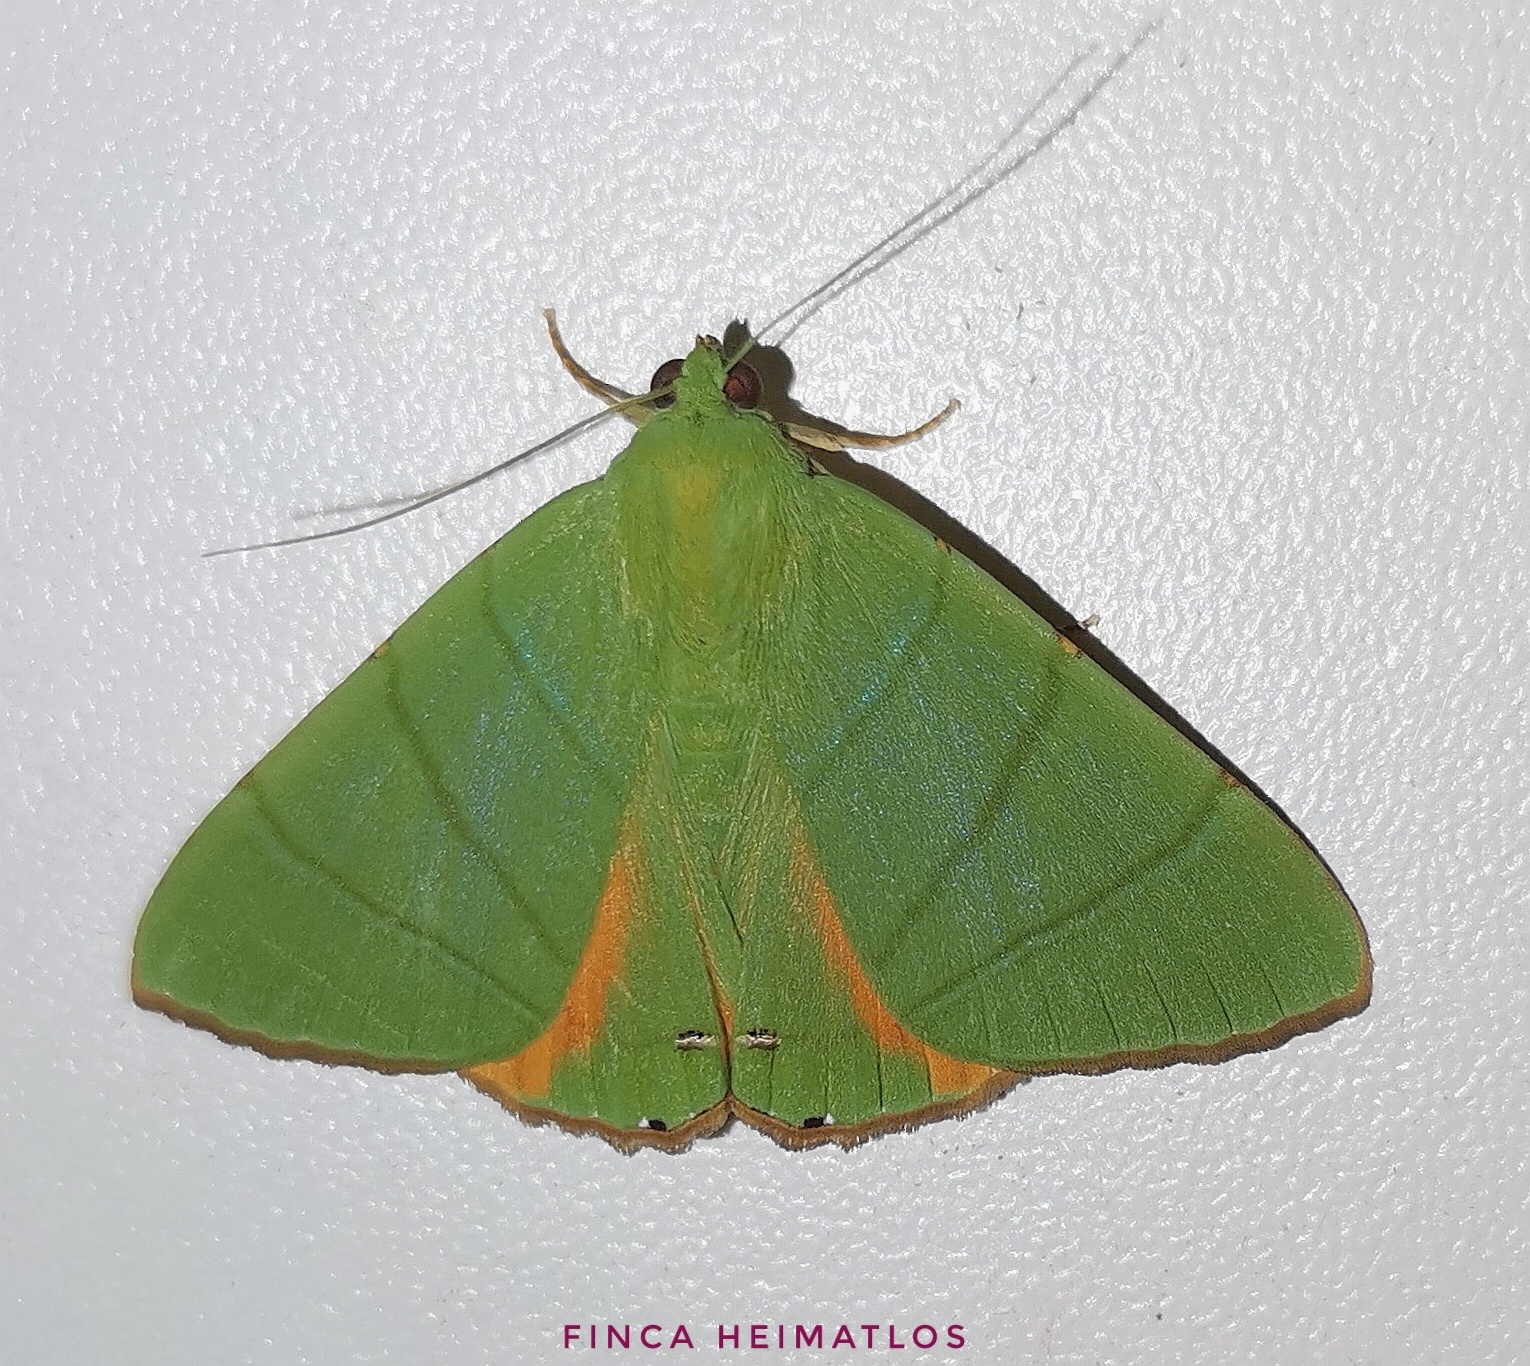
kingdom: Animalia
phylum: Arthropoda
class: Insecta
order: Lepidoptera
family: Erebidae
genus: Eulepidotis
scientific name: Eulepidotis punctilinea
